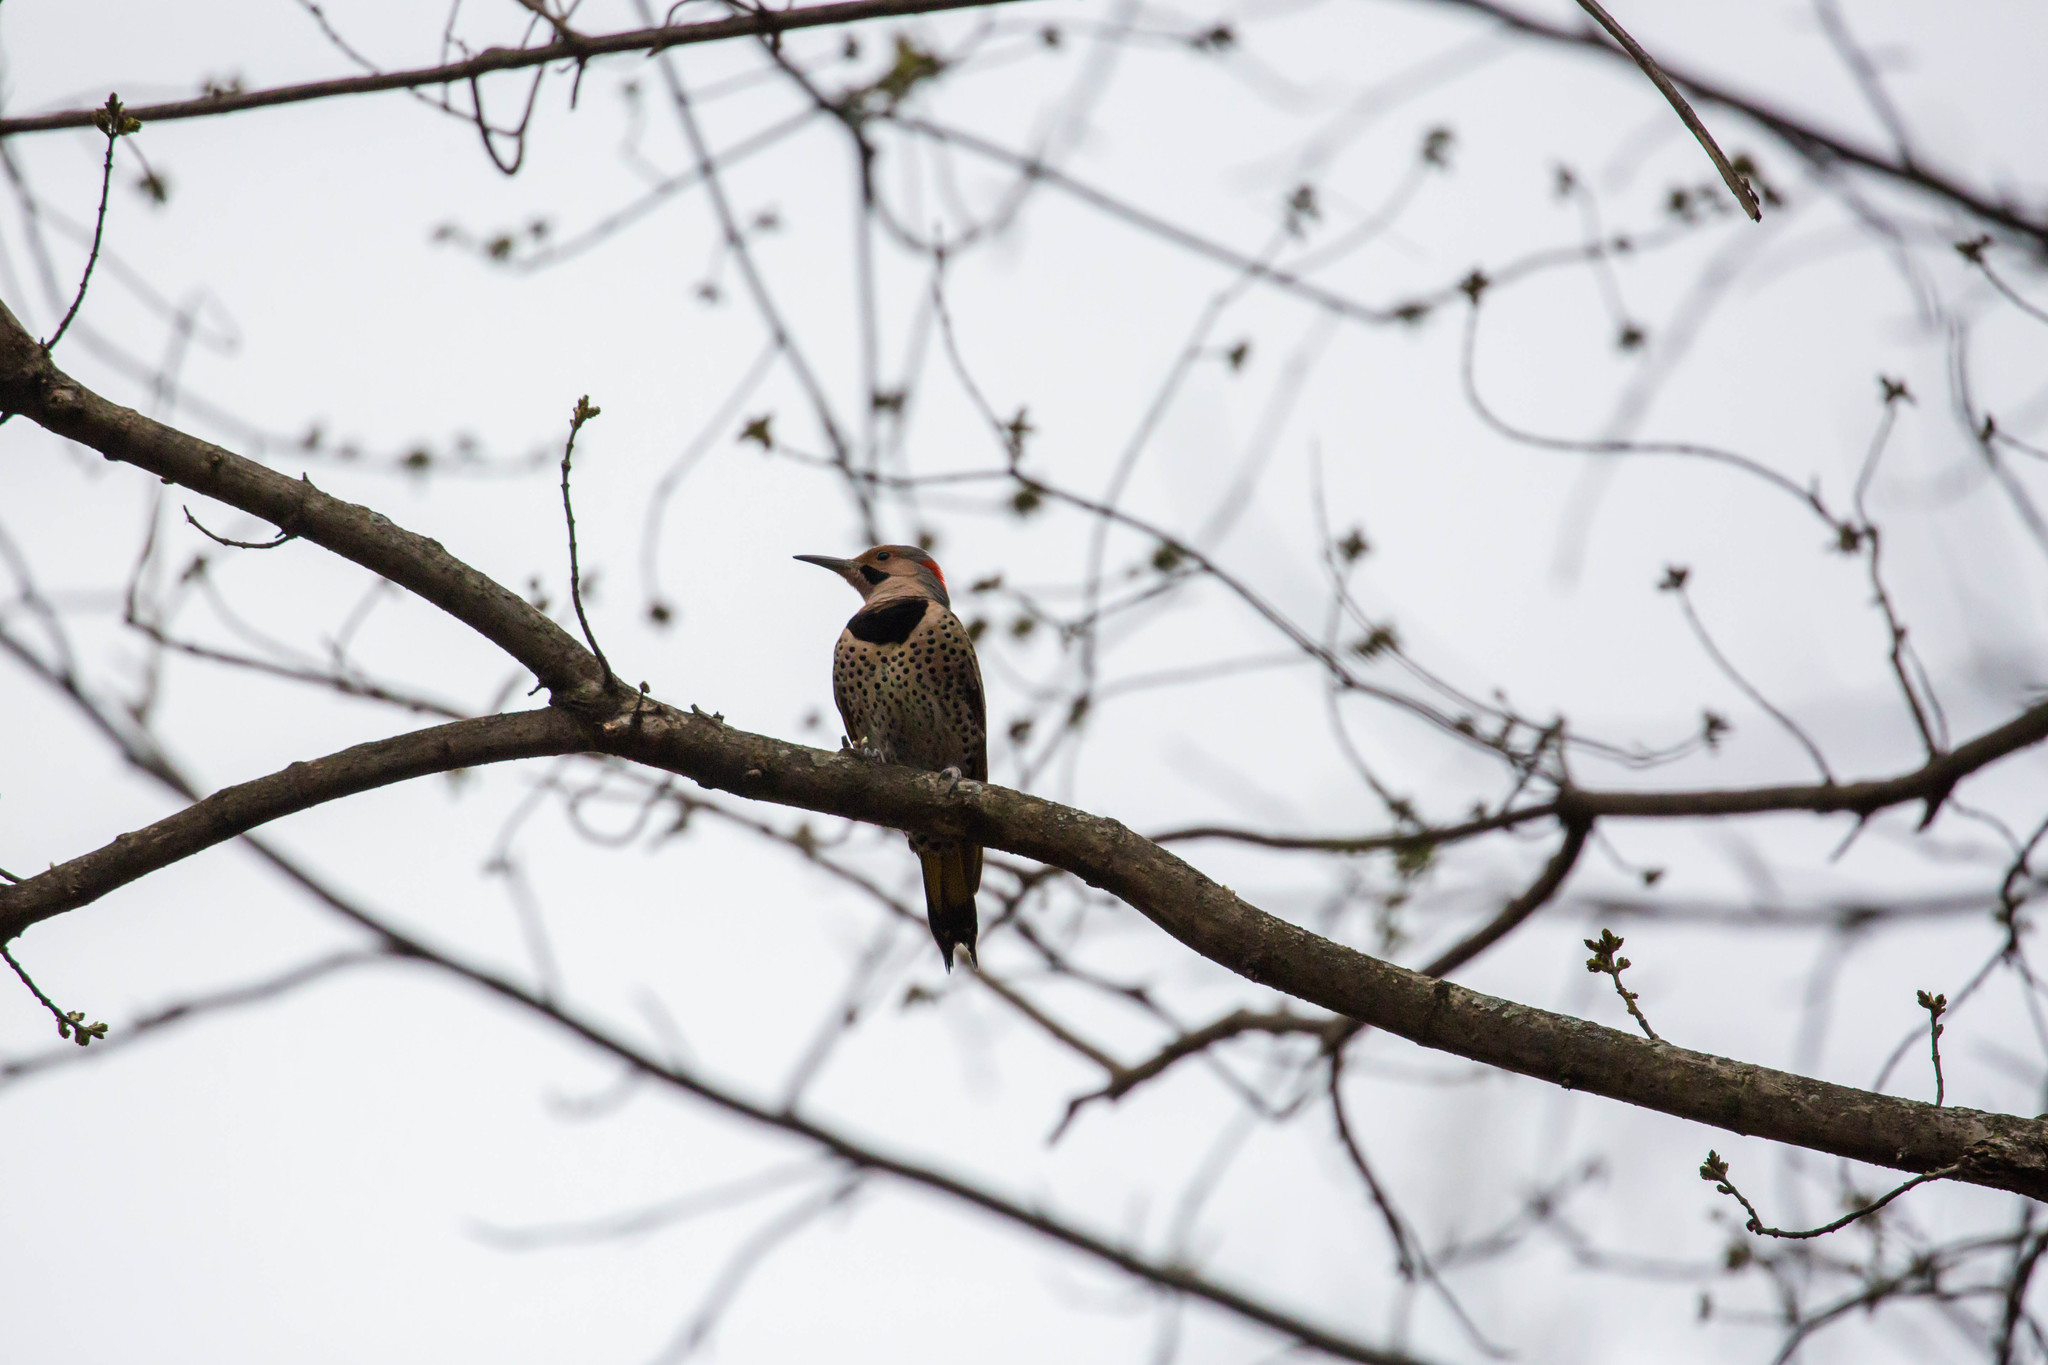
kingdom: Animalia
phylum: Chordata
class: Aves
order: Piciformes
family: Picidae
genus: Colaptes
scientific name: Colaptes auratus
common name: Northern flicker
